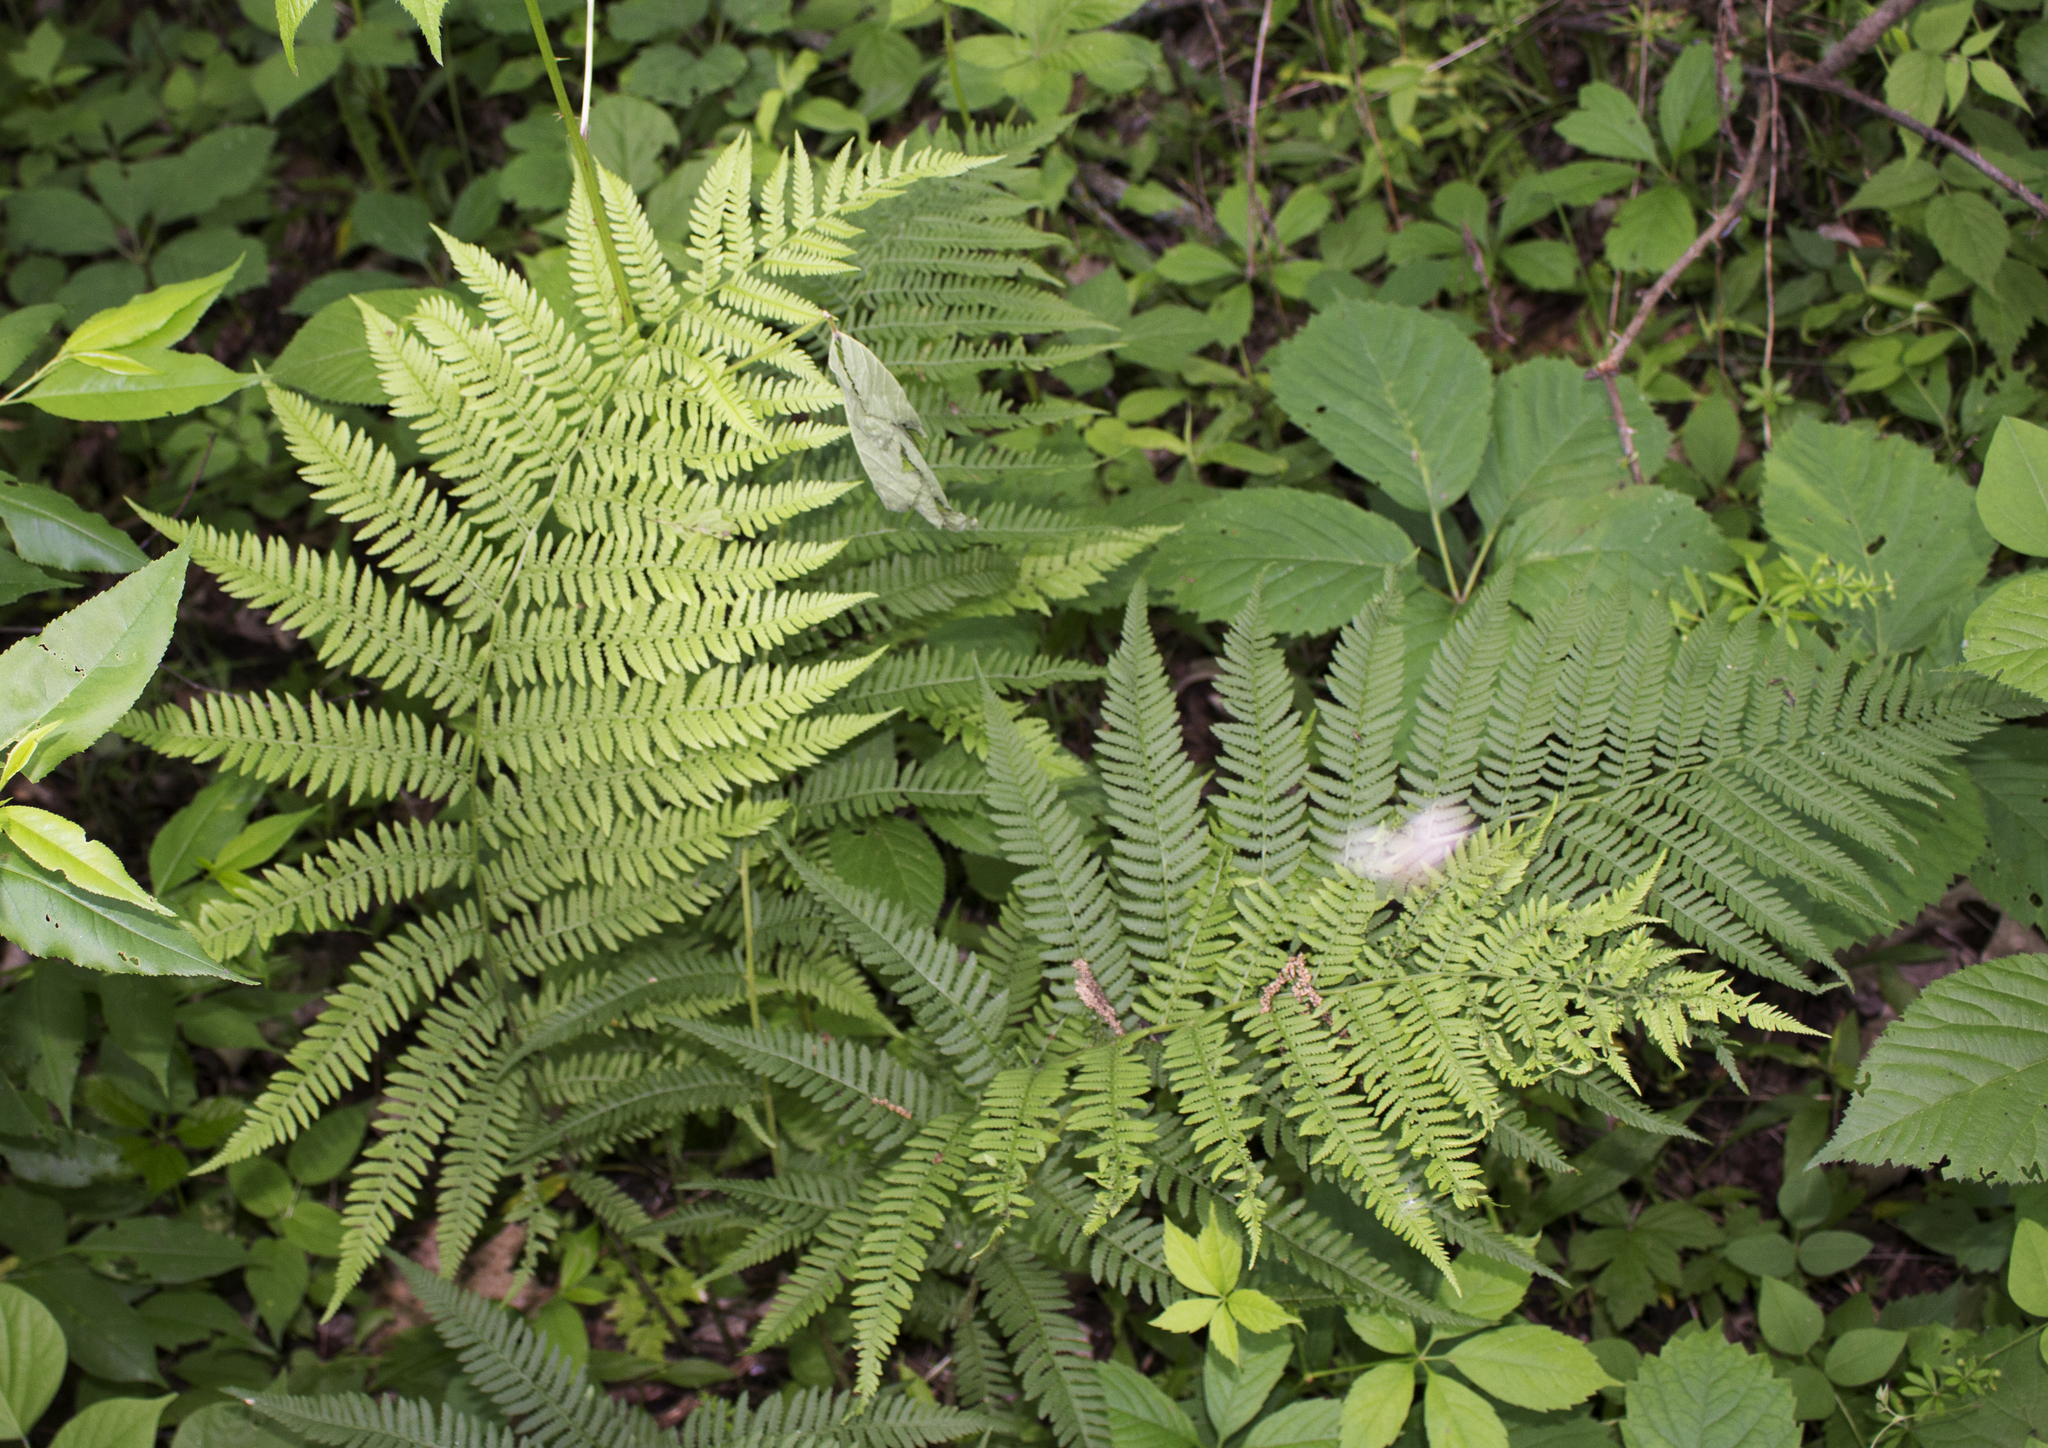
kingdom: Plantae
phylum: Tracheophyta
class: Polypodiopsida
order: Polypodiales
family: Athyriaceae
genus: Athyrium
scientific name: Athyrium angustum
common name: Northern lady fern
